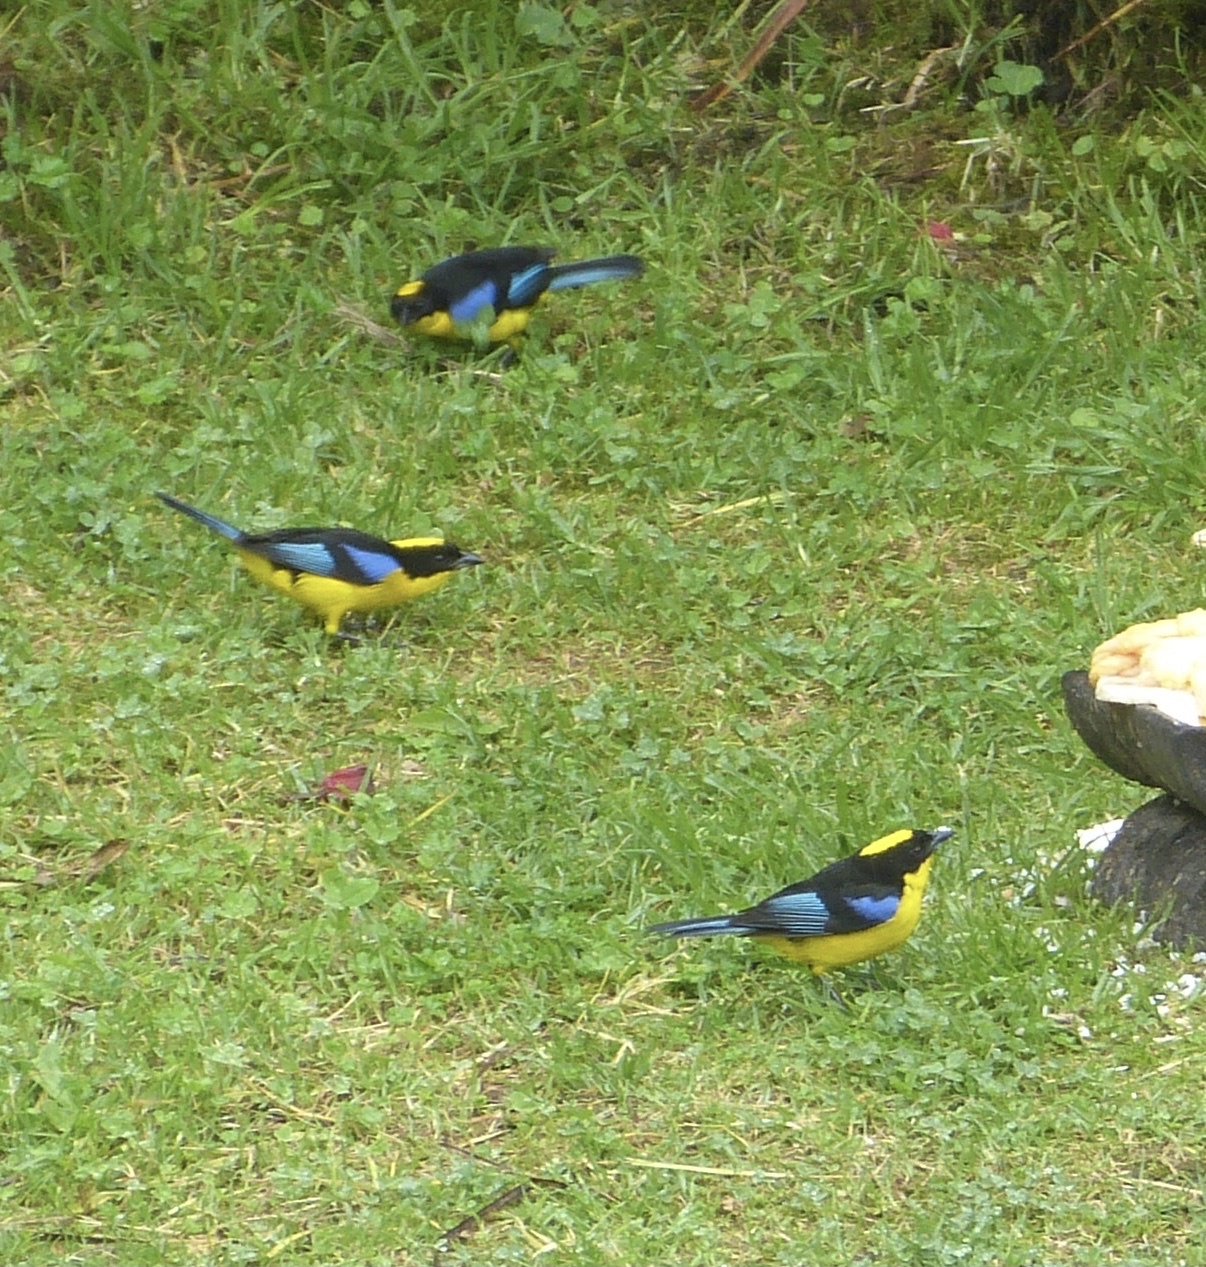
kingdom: Animalia
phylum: Chordata
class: Aves
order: Passeriformes
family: Thraupidae
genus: Anisognathus
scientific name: Anisognathus somptuosus
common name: Blue-winged mountain-tanager
